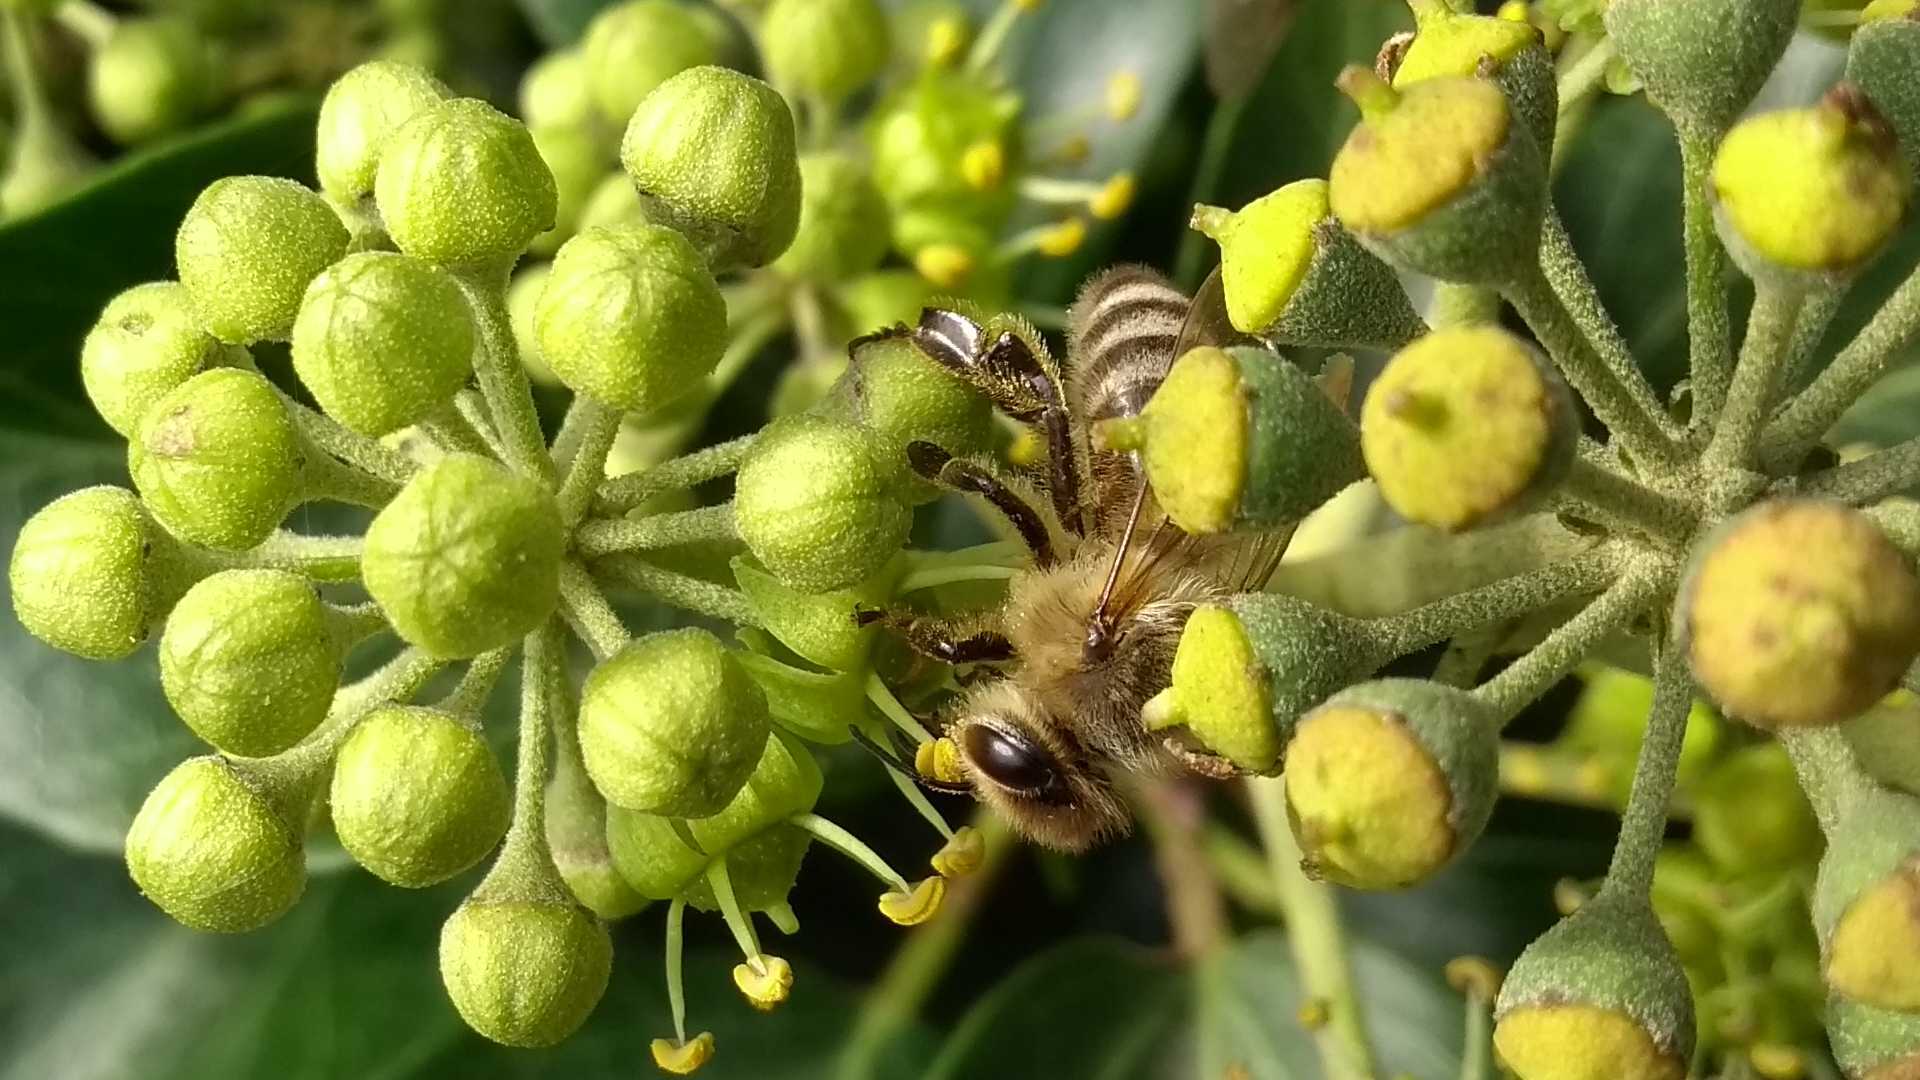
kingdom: Animalia
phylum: Arthropoda
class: Insecta
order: Hymenoptera
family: Apidae
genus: Apis
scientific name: Apis mellifera
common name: Honey bee
